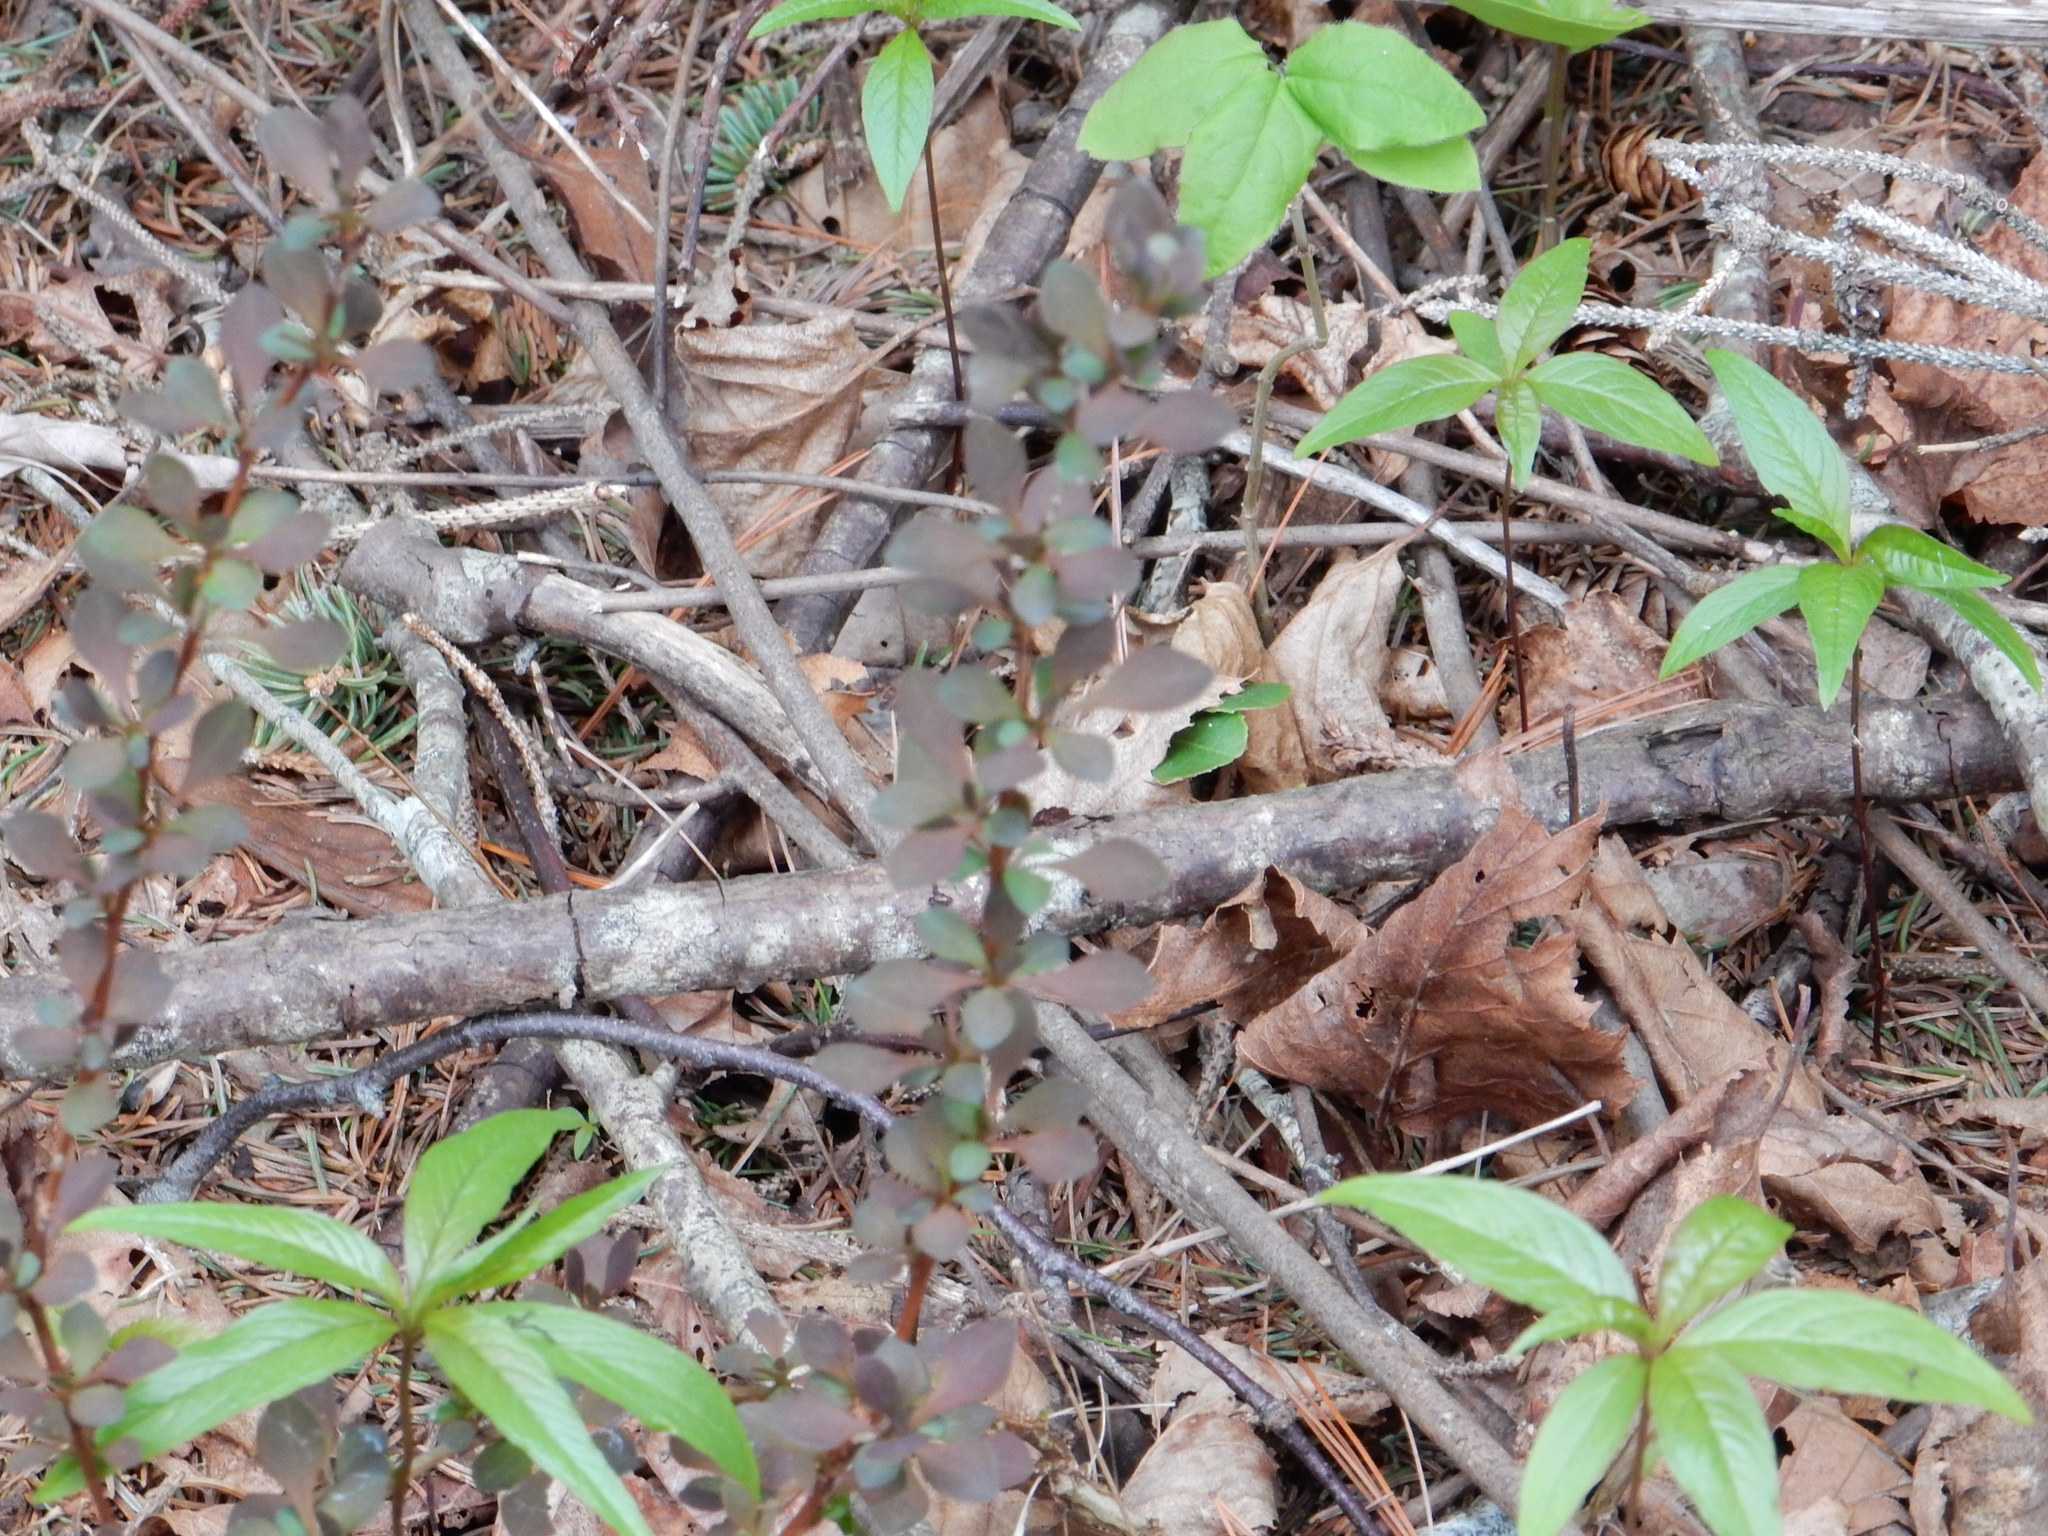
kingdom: Plantae
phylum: Tracheophyta
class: Magnoliopsida
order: Ranunculales
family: Berberidaceae
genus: Berberis
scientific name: Berberis thunbergii
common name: Japanese barberry
